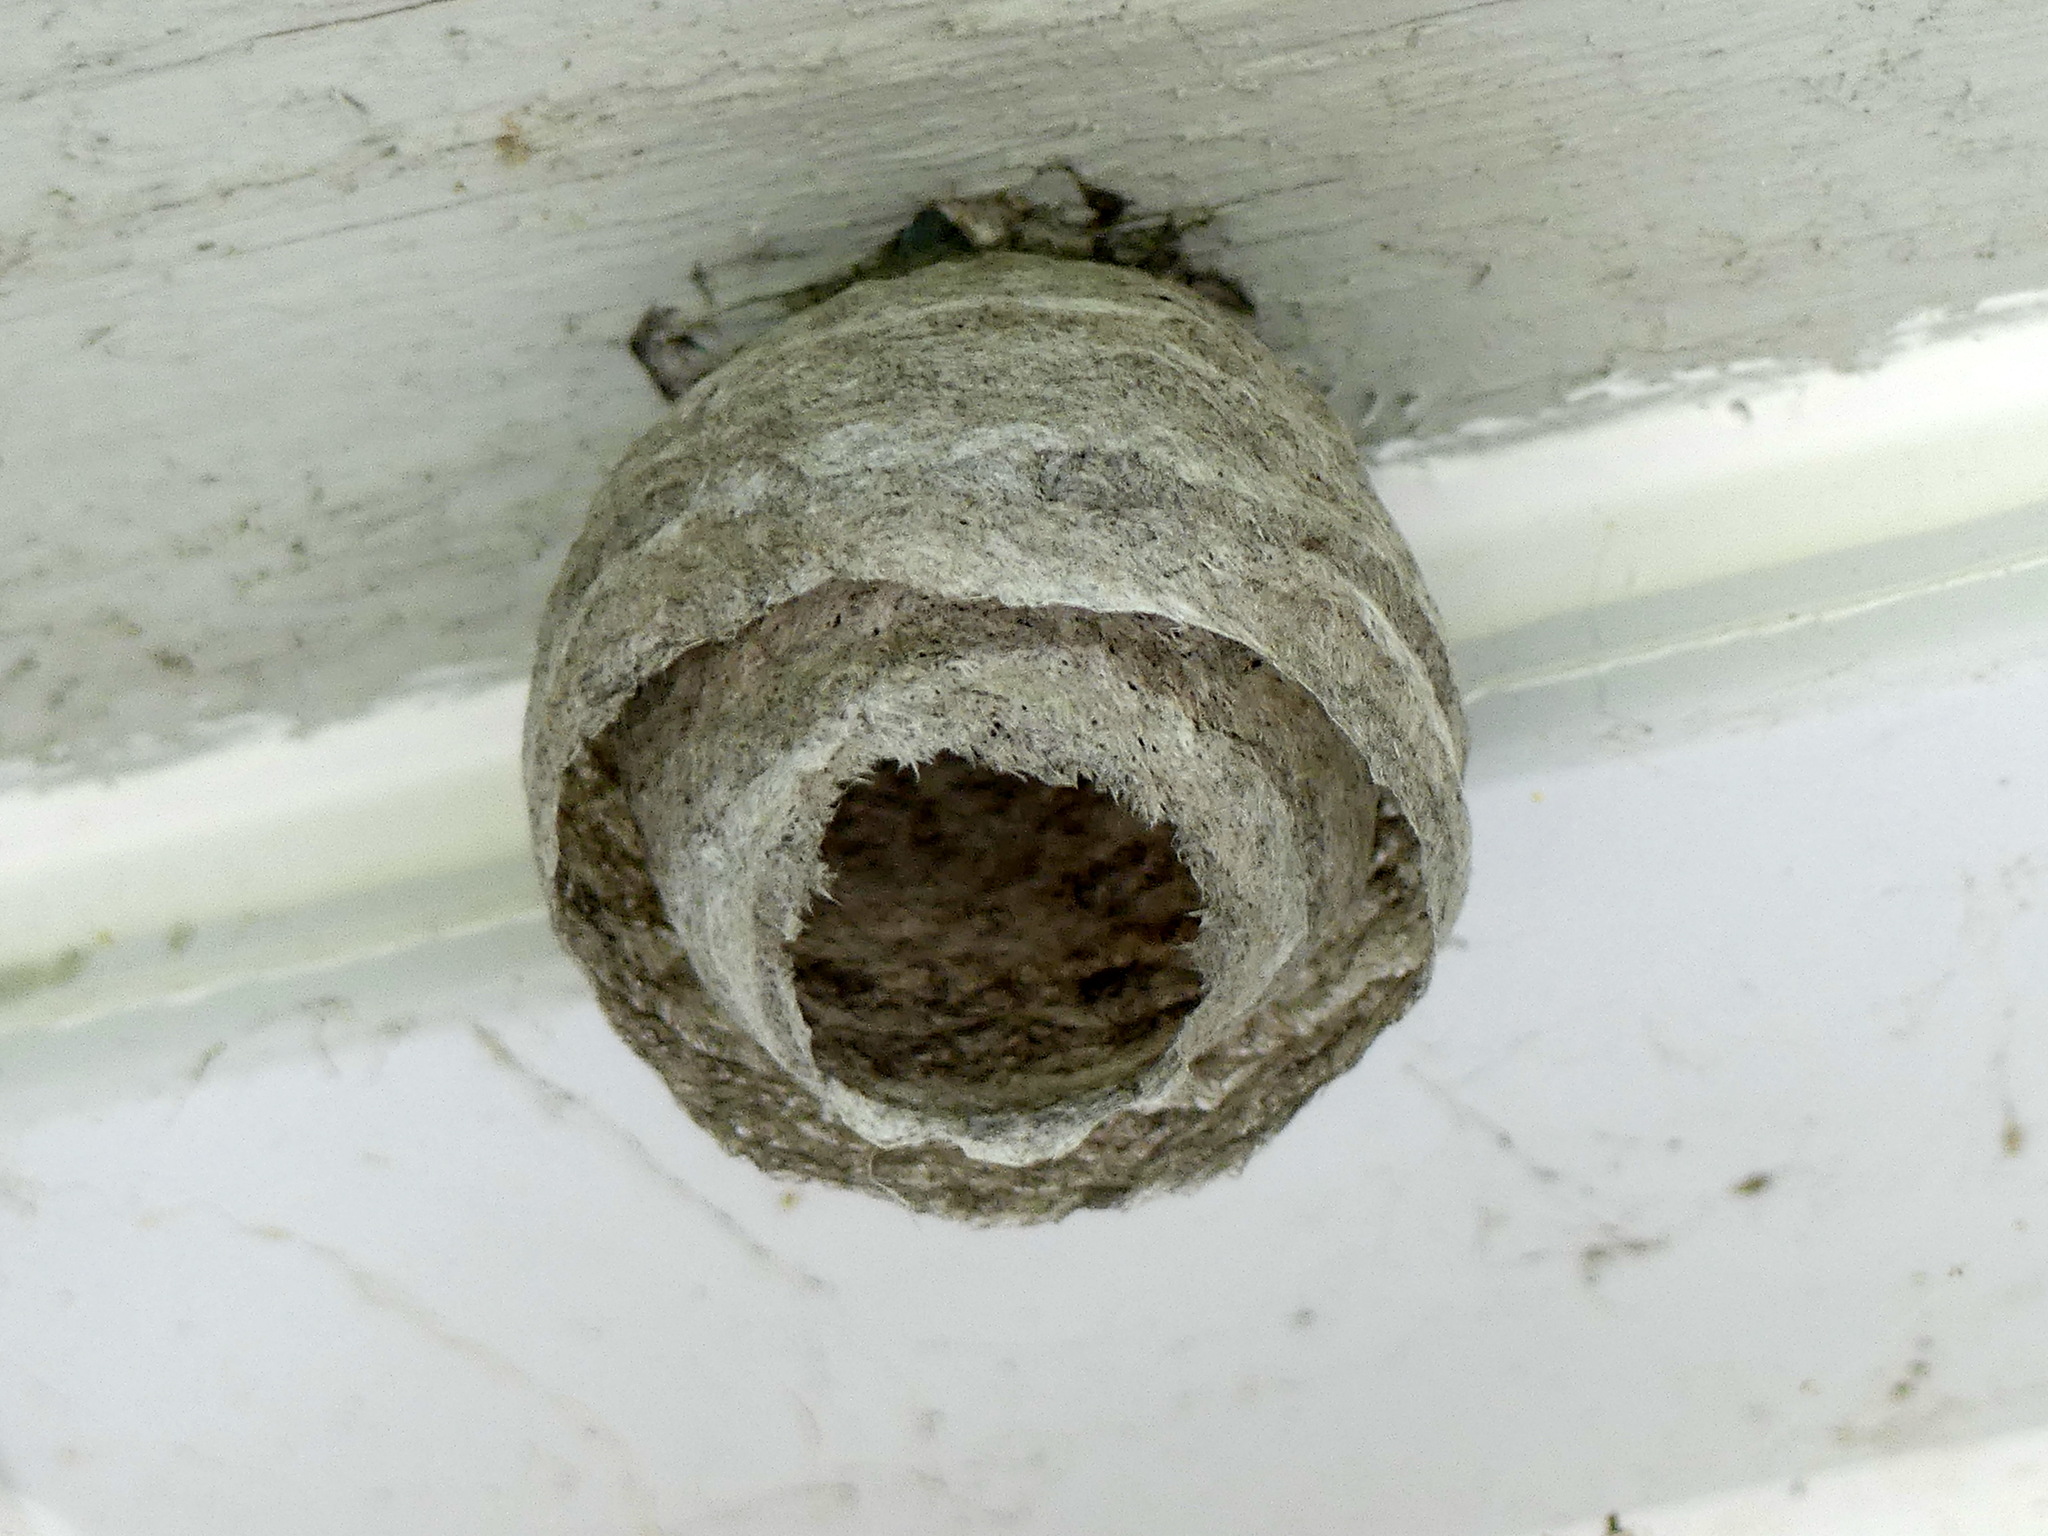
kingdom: Animalia
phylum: Arthropoda
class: Insecta
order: Hymenoptera
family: Vespidae
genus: Dolichovespula
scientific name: Dolichovespula
